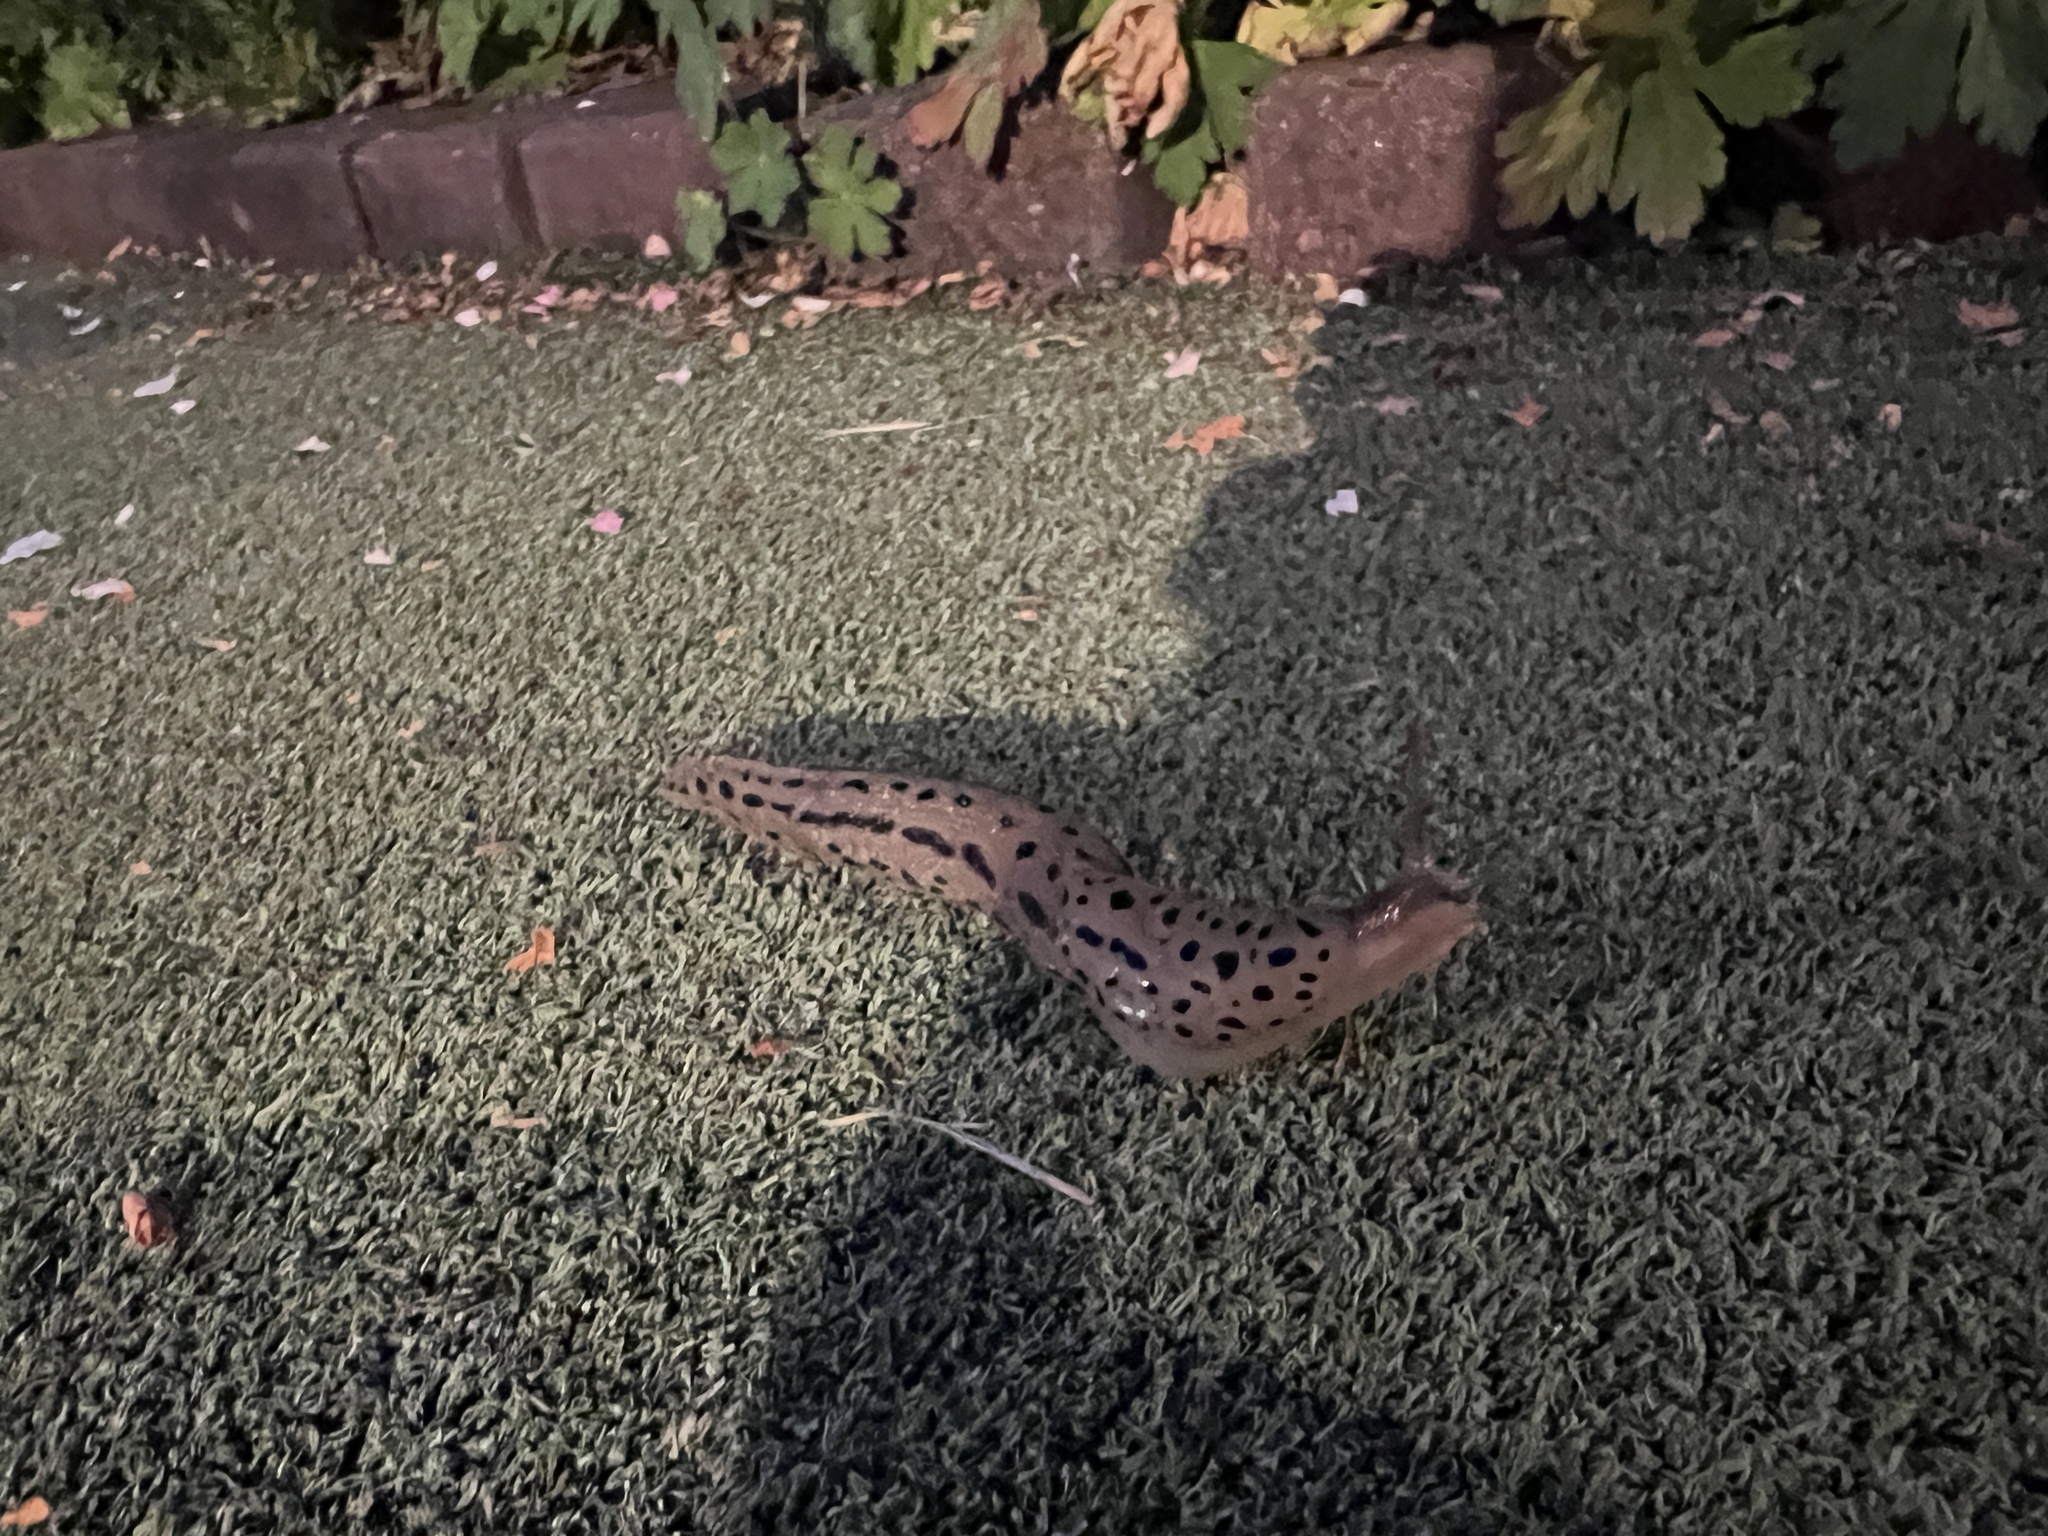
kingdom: Animalia
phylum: Mollusca
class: Gastropoda
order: Stylommatophora
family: Limacidae
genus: Limax
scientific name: Limax maximus
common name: Great grey slug
